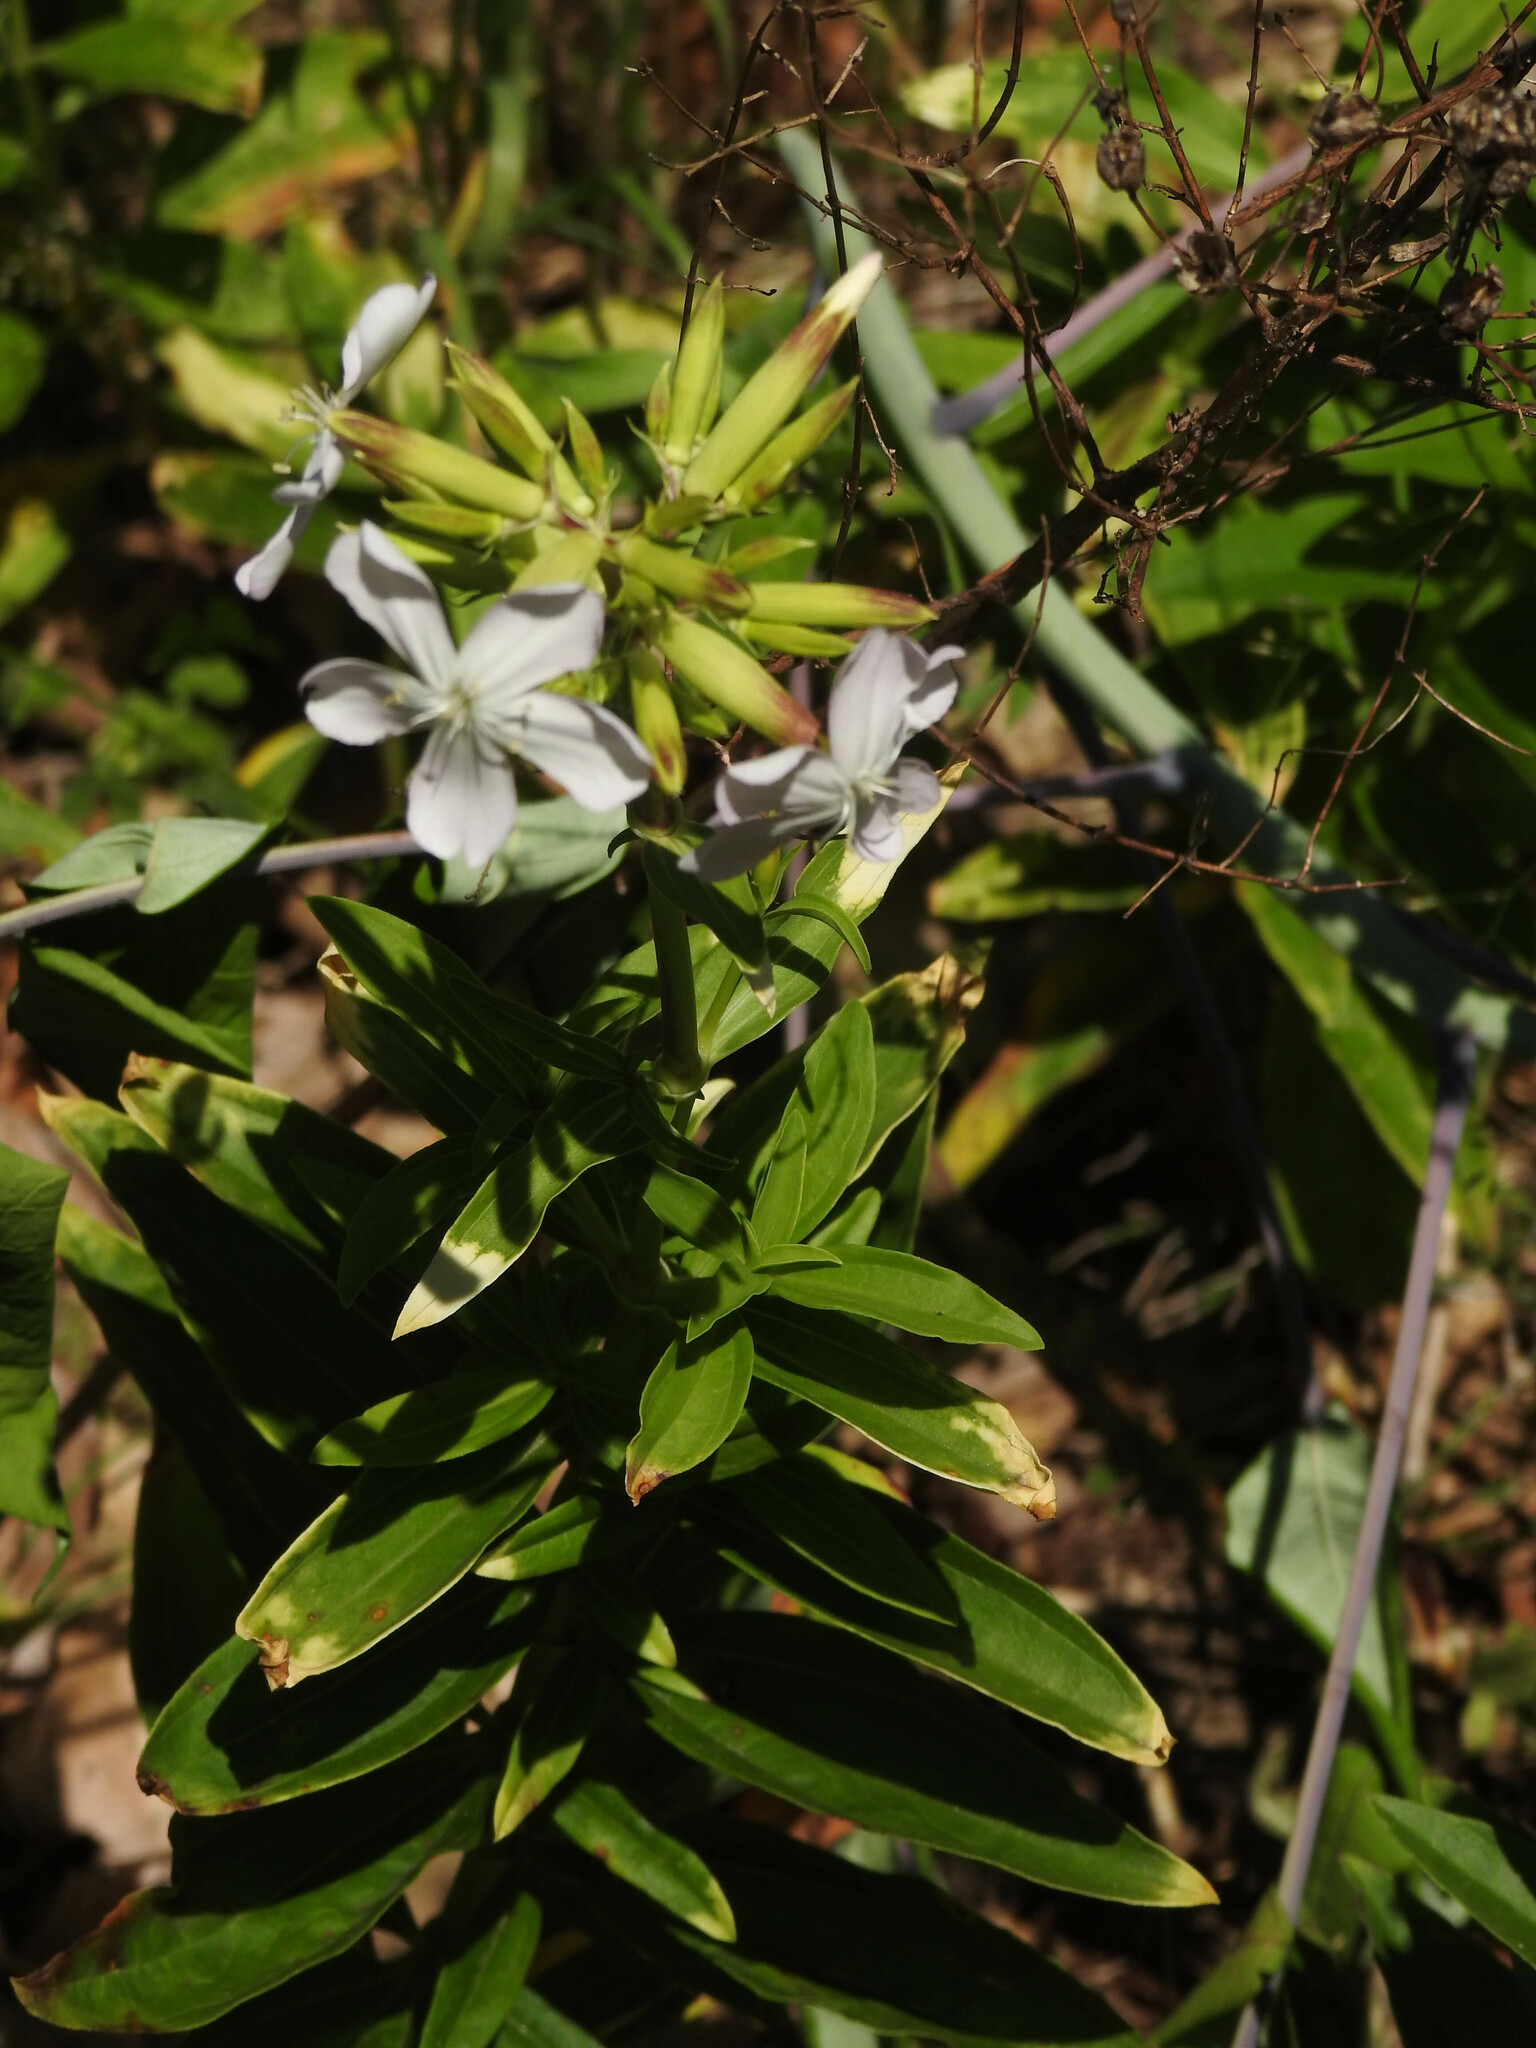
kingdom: Plantae
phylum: Tracheophyta
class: Magnoliopsida
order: Caryophyllales
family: Caryophyllaceae
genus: Saponaria
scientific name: Saponaria officinalis
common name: Soapwort
